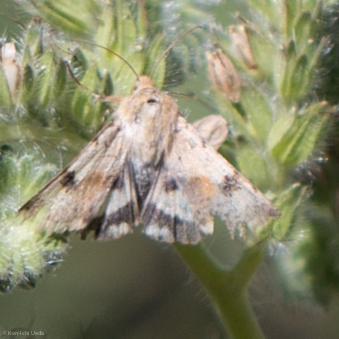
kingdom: Animalia
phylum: Arthropoda
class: Insecta
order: Lepidoptera
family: Noctuidae
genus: Heliothis
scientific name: Heliothis phloxiphaga
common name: Darker spotted straw moth
